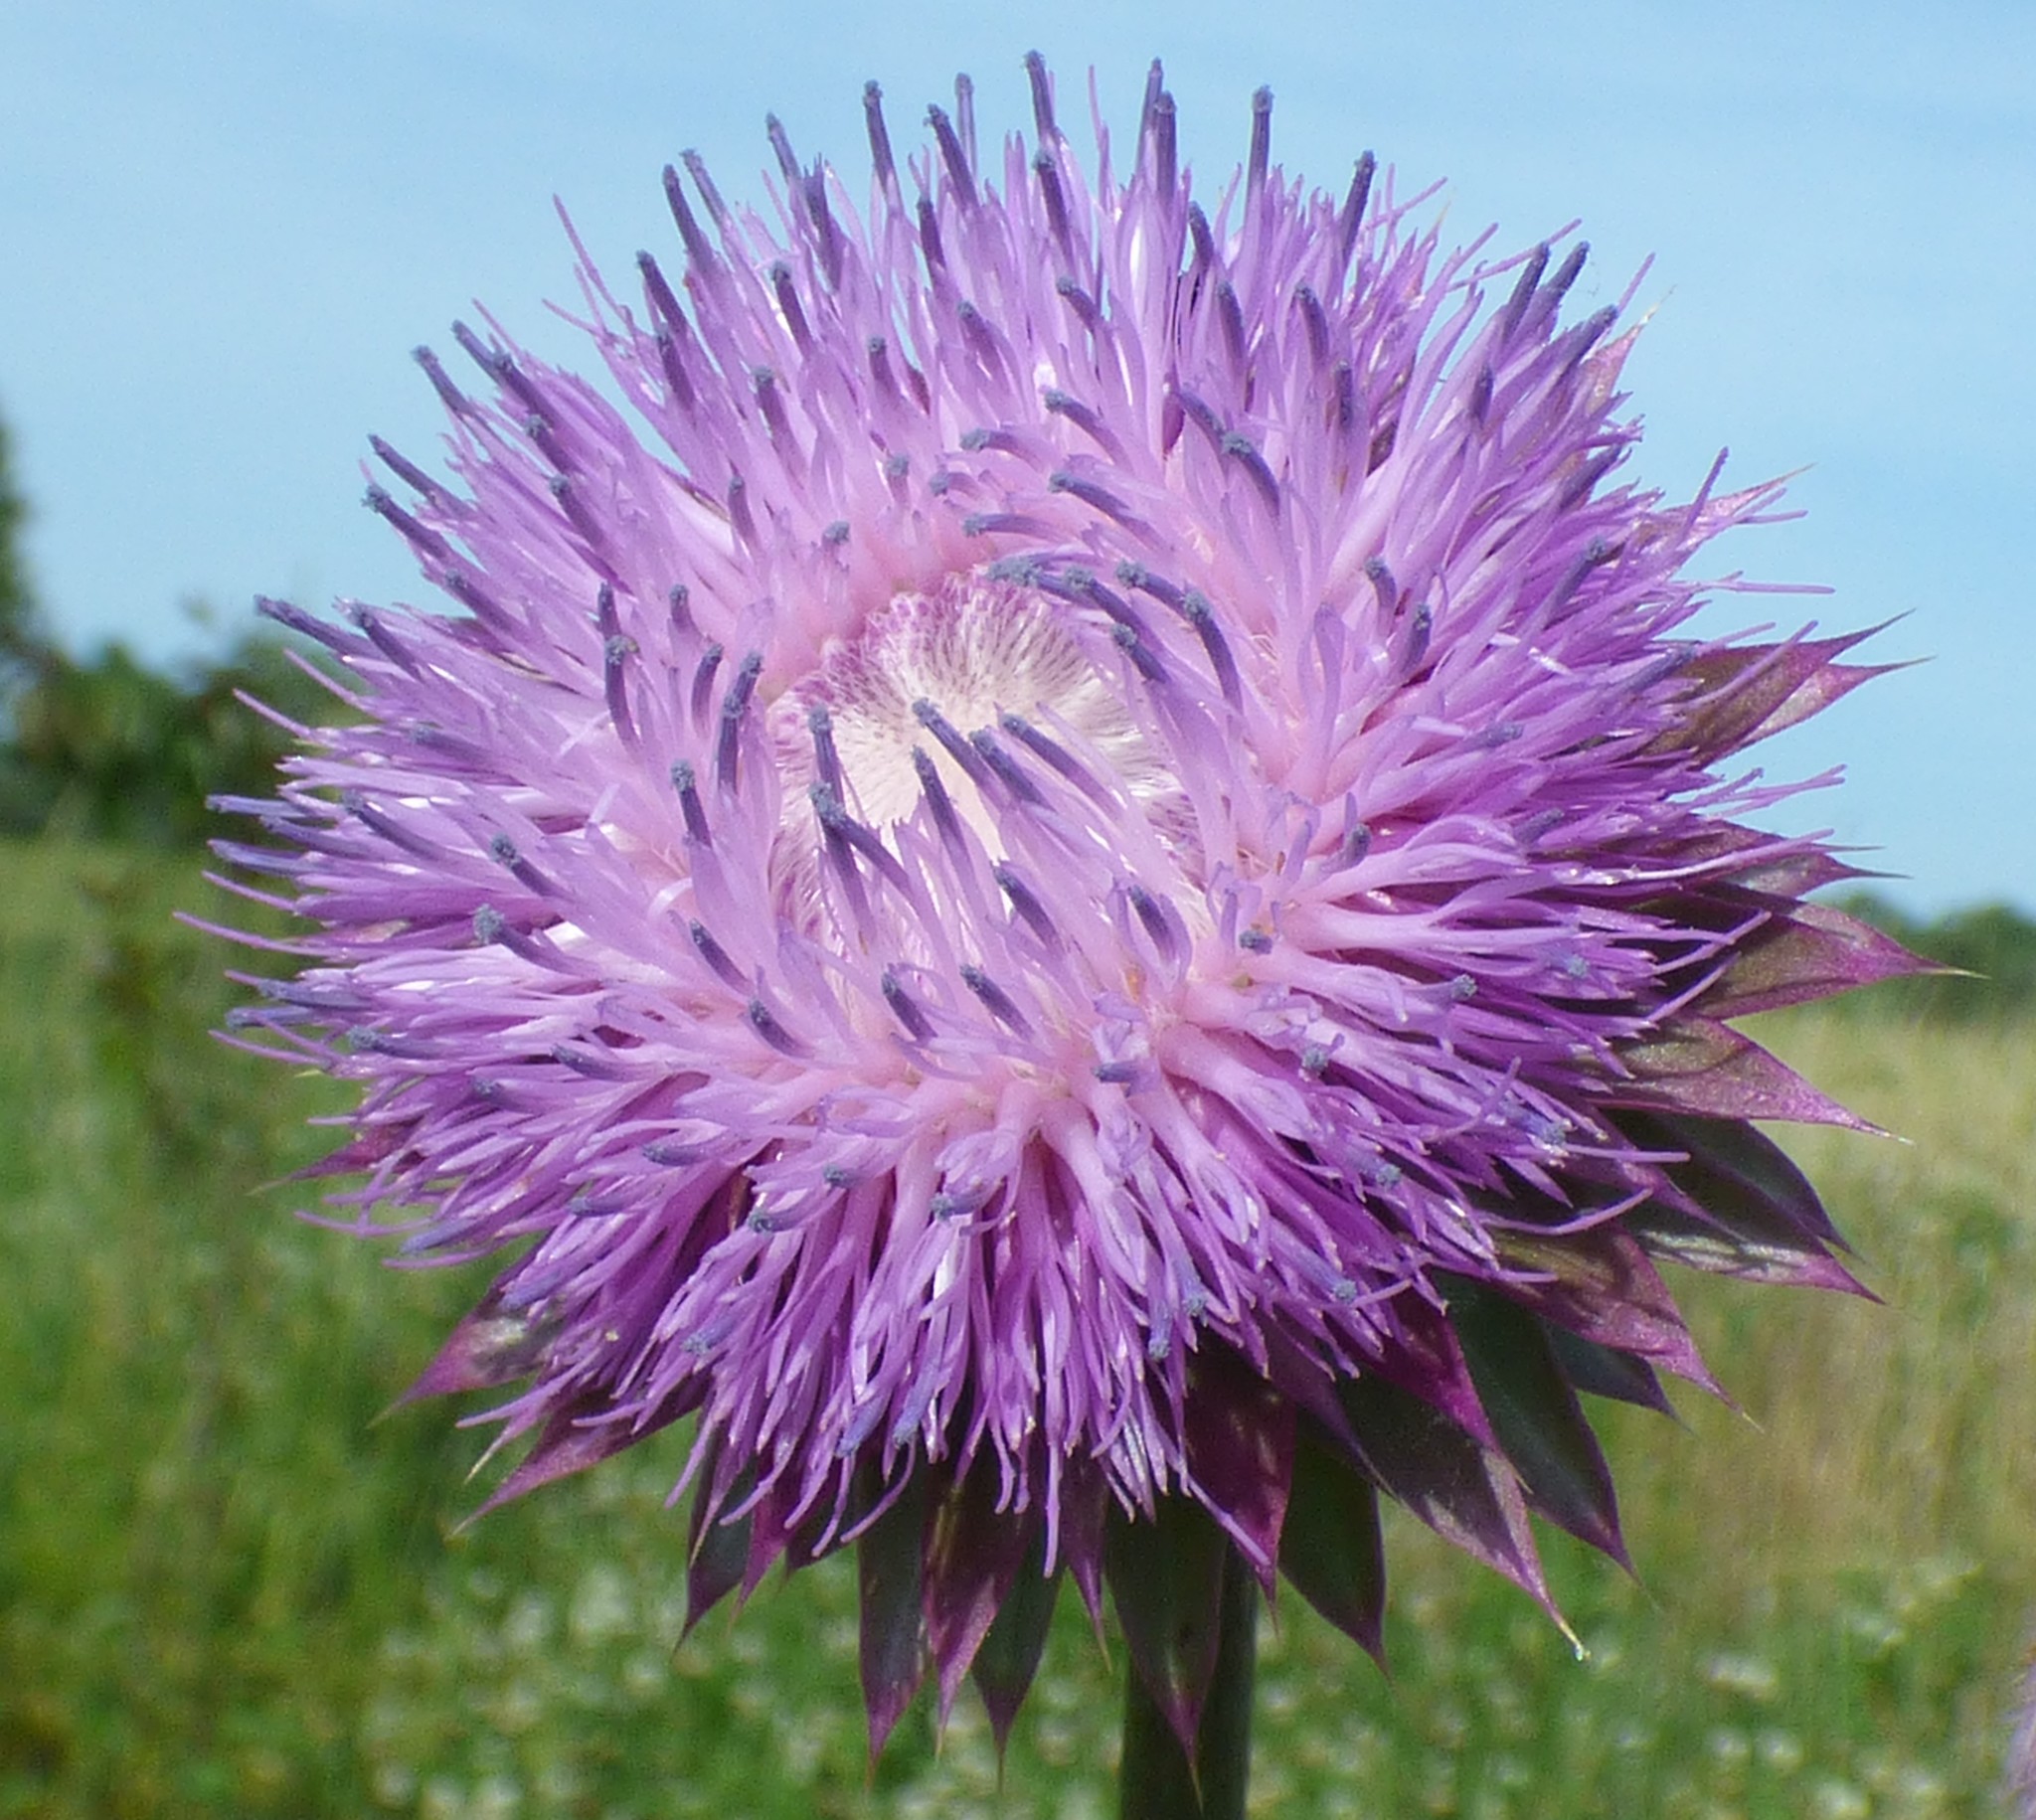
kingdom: Plantae
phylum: Tracheophyta
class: Magnoliopsida
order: Asterales
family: Asteraceae
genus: Carduus
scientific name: Carduus nutans
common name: Musk thistle
